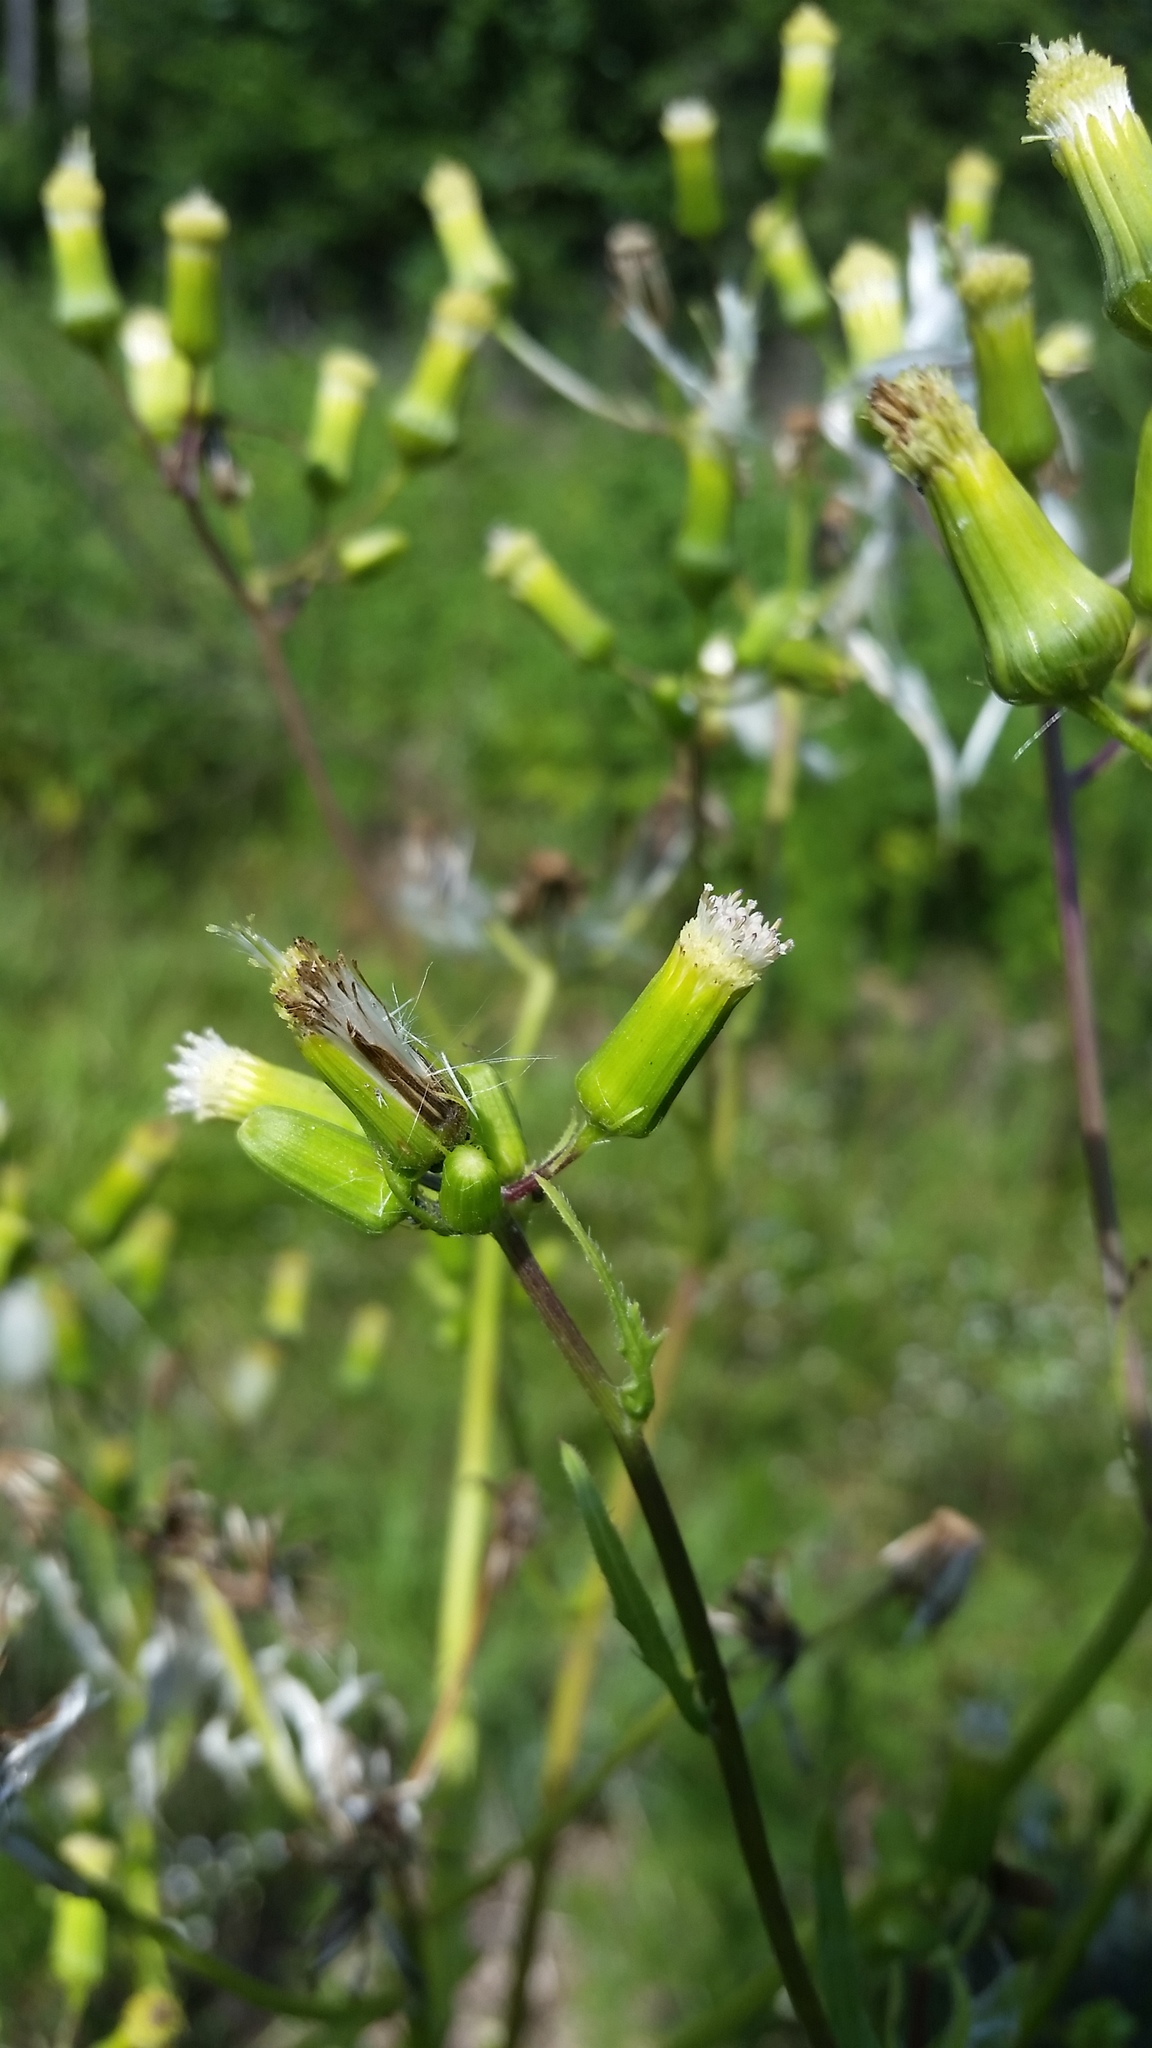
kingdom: Plantae
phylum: Tracheophyta
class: Magnoliopsida
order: Asterales
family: Asteraceae
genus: Erechtites
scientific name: Erechtites hieraciifolius
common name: American burnweed
